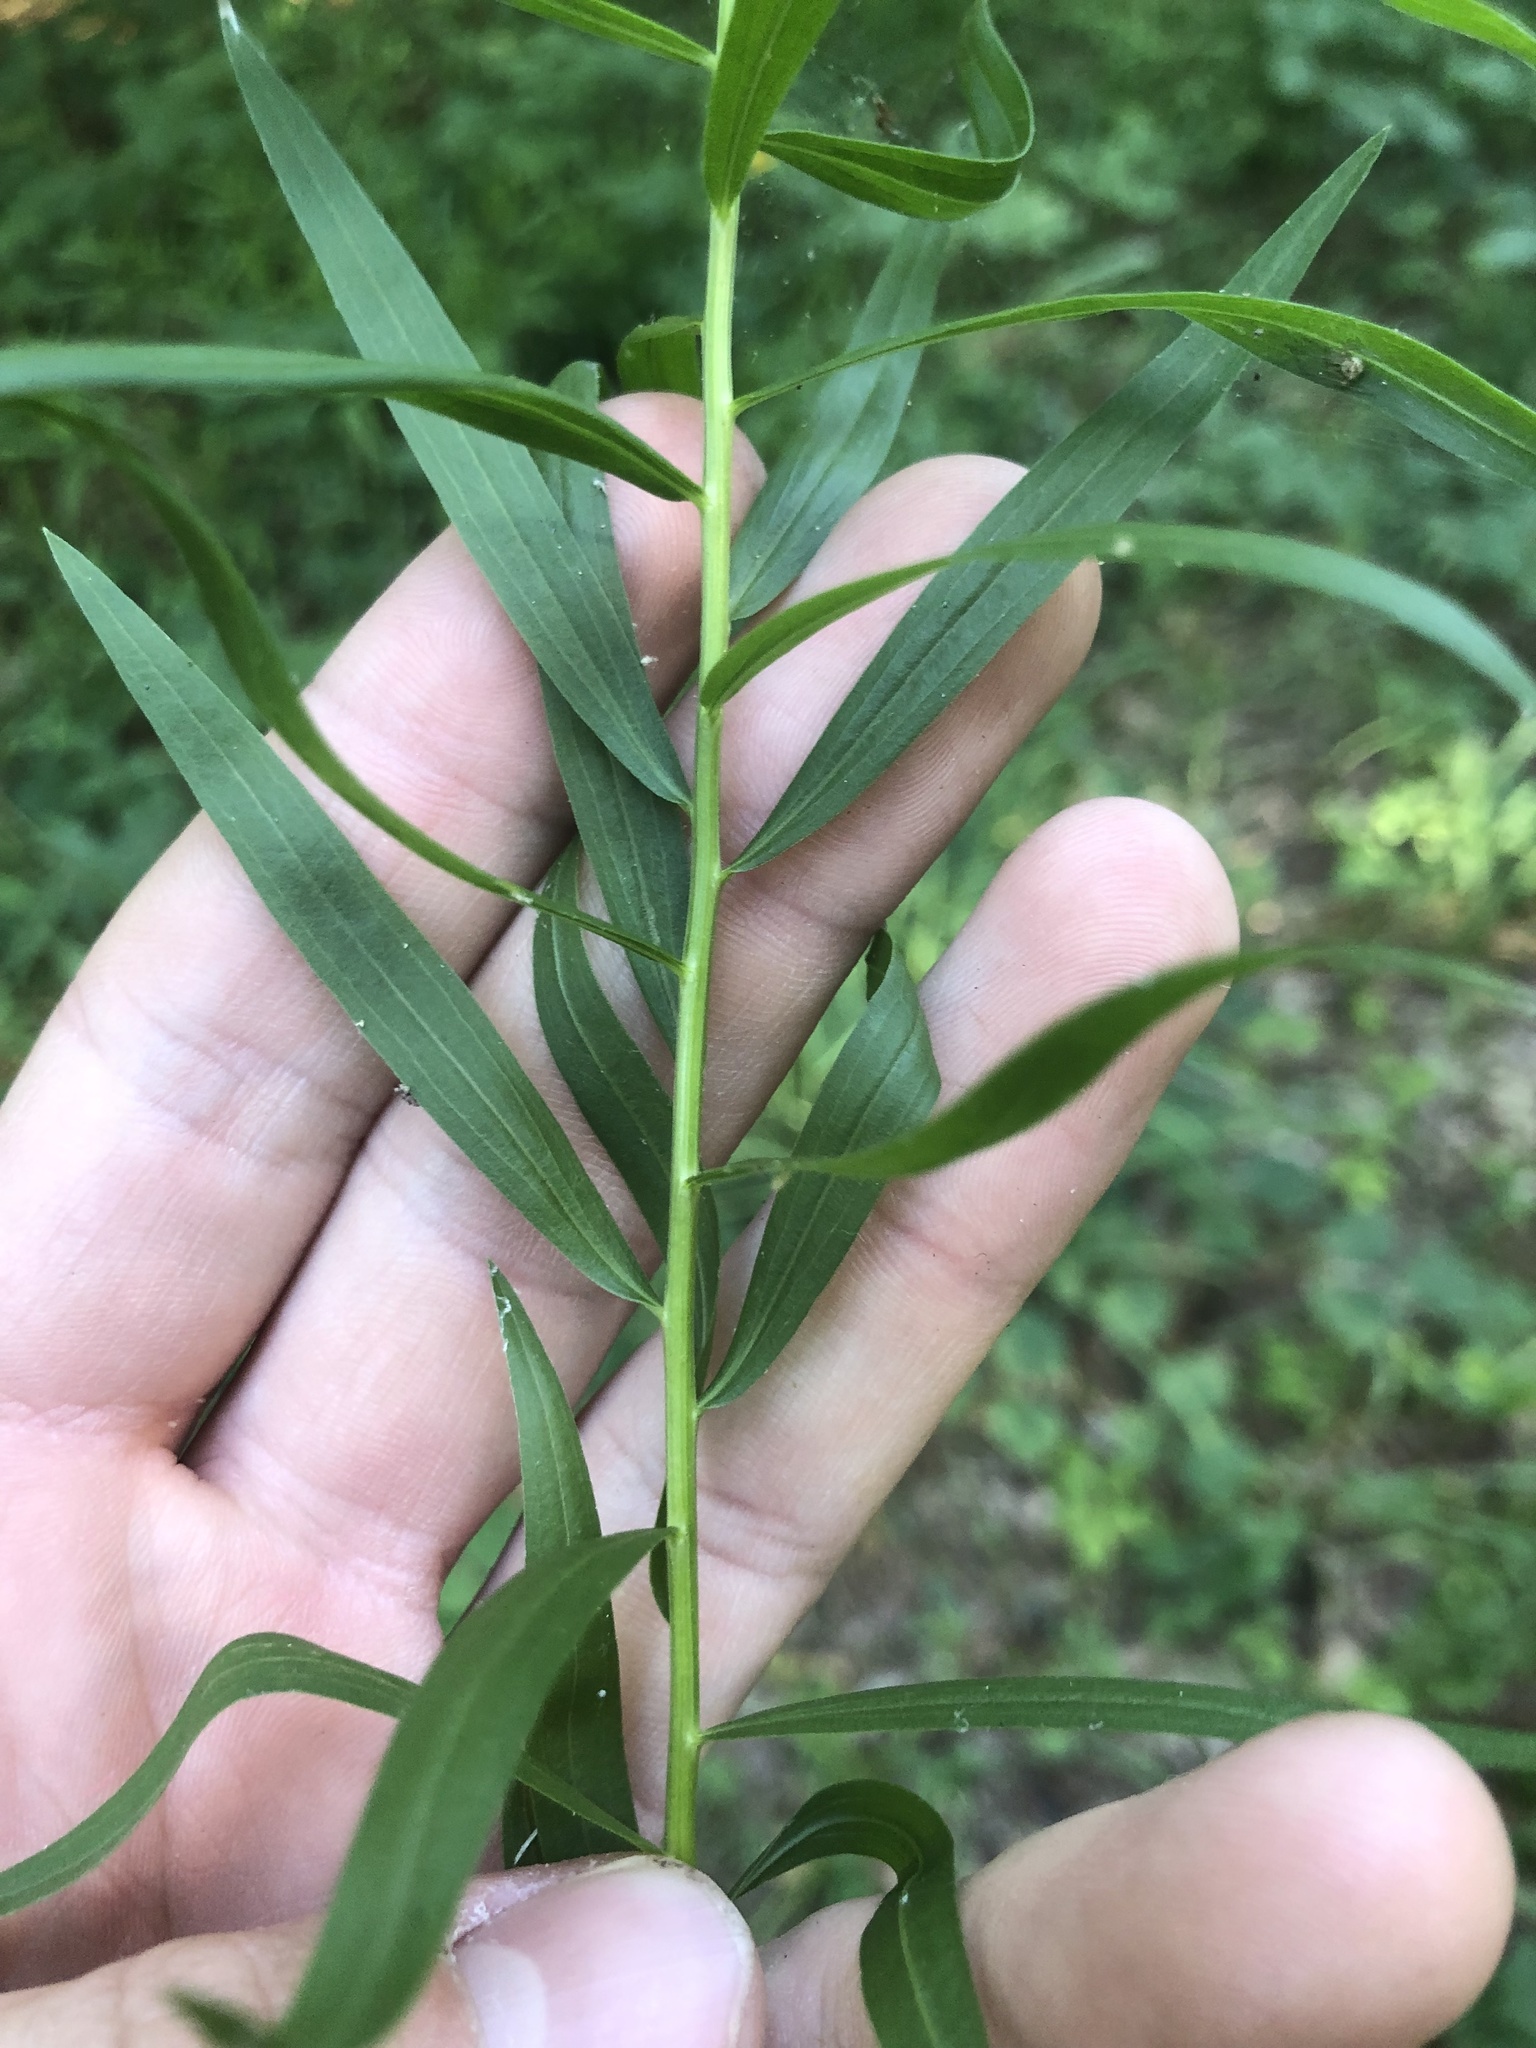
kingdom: Plantae
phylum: Tracheophyta
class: Magnoliopsida
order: Asterales
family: Asteraceae
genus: Euthamia
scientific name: Euthamia leptocephala
